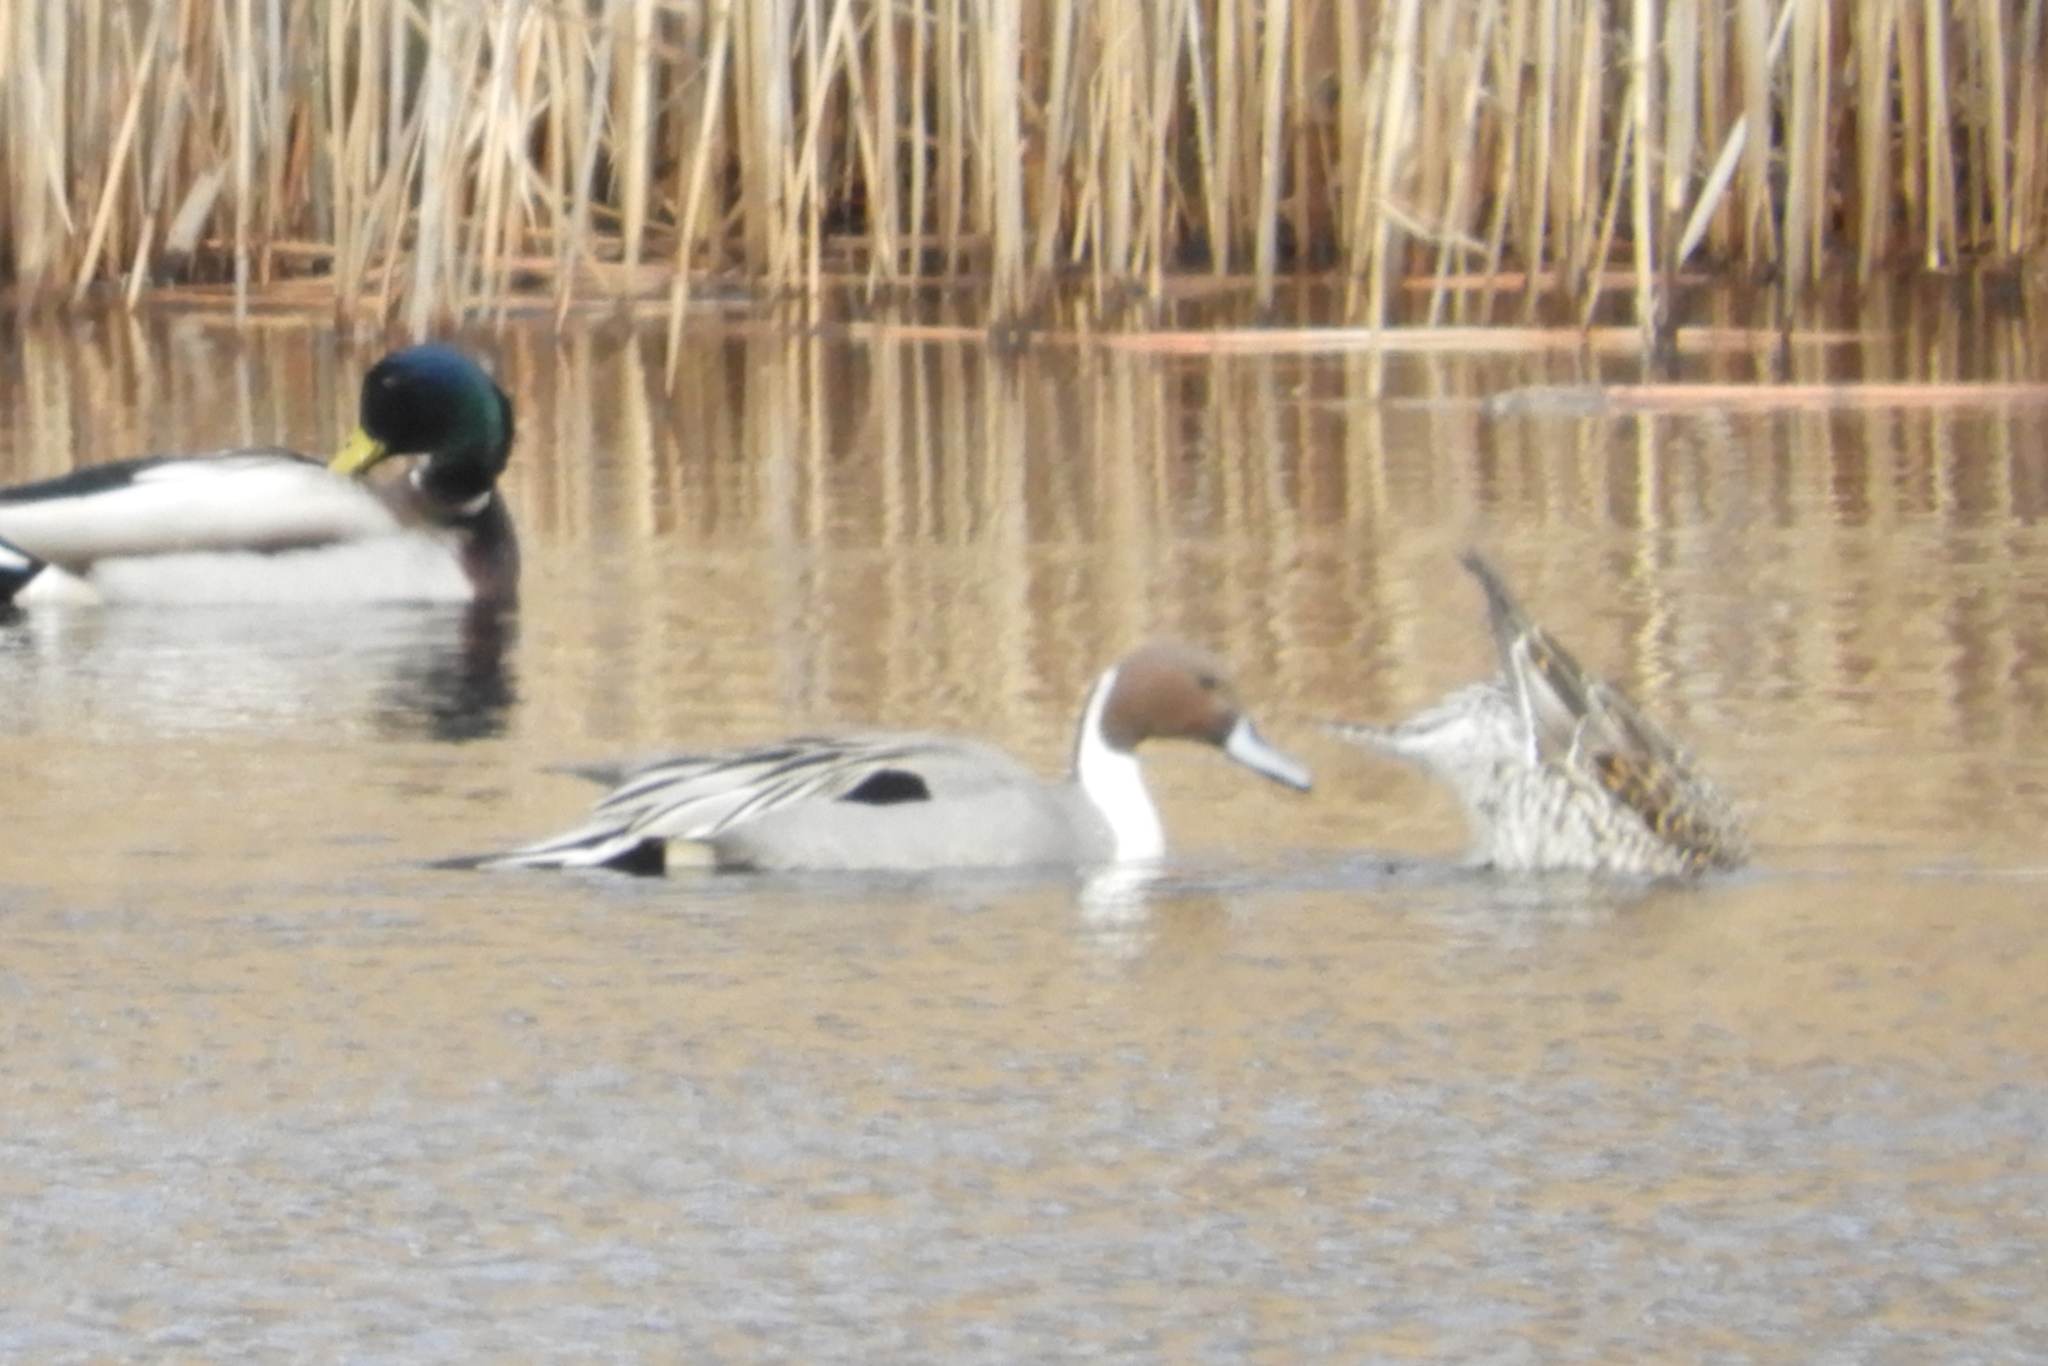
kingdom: Animalia
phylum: Chordata
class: Aves
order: Anseriformes
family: Anatidae
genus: Anas
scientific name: Anas acuta
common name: Northern pintail
